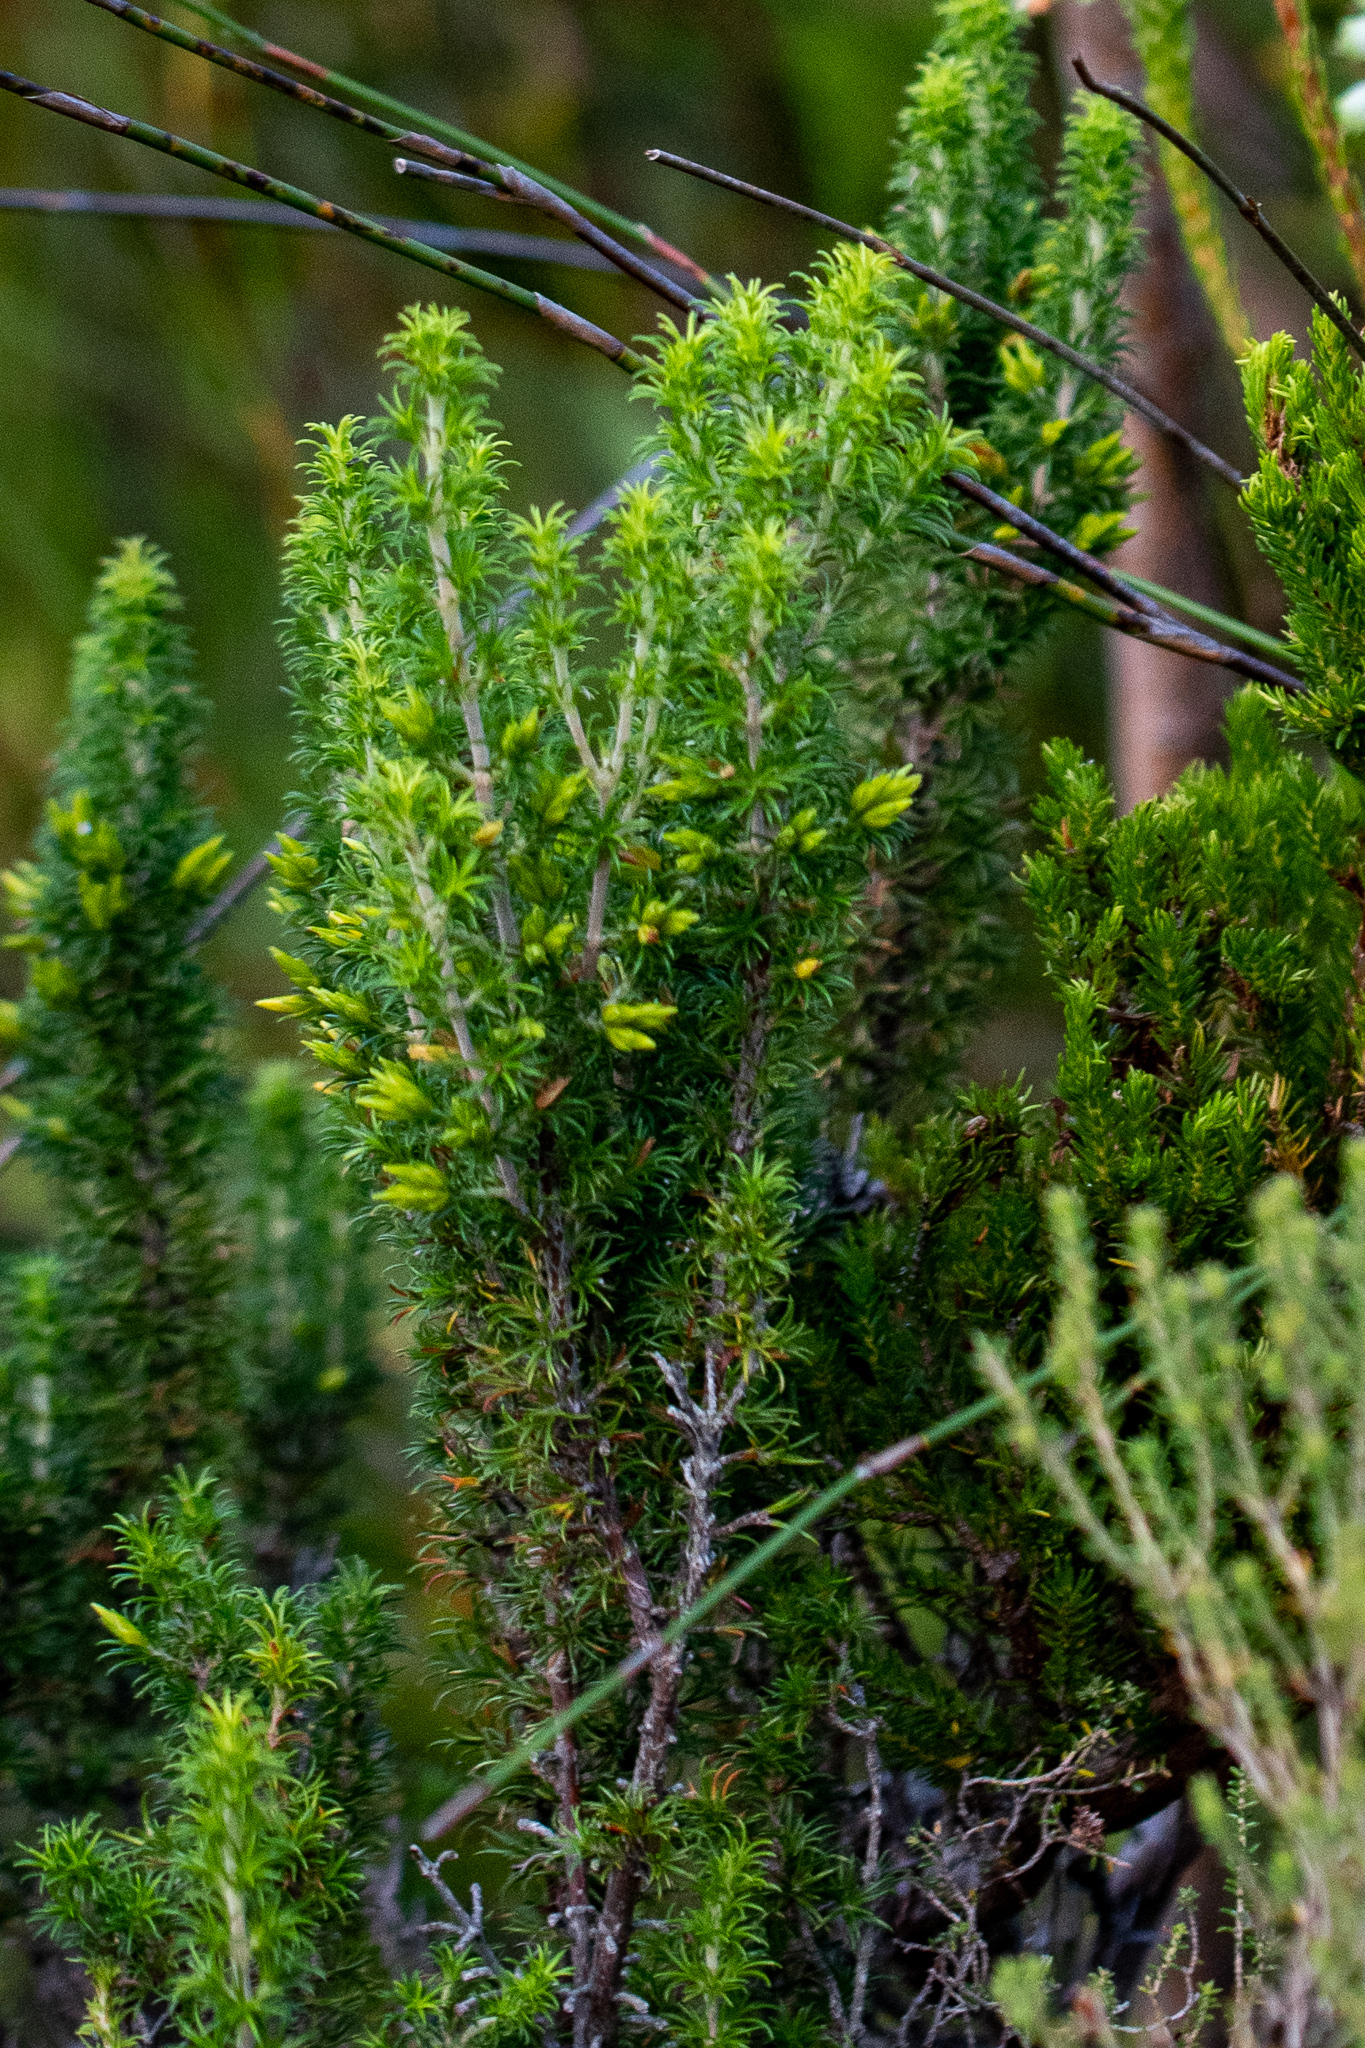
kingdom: Plantae
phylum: Tracheophyta
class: Magnoliopsida
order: Ericales
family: Ericaceae
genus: Erica
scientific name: Erica coccinea
